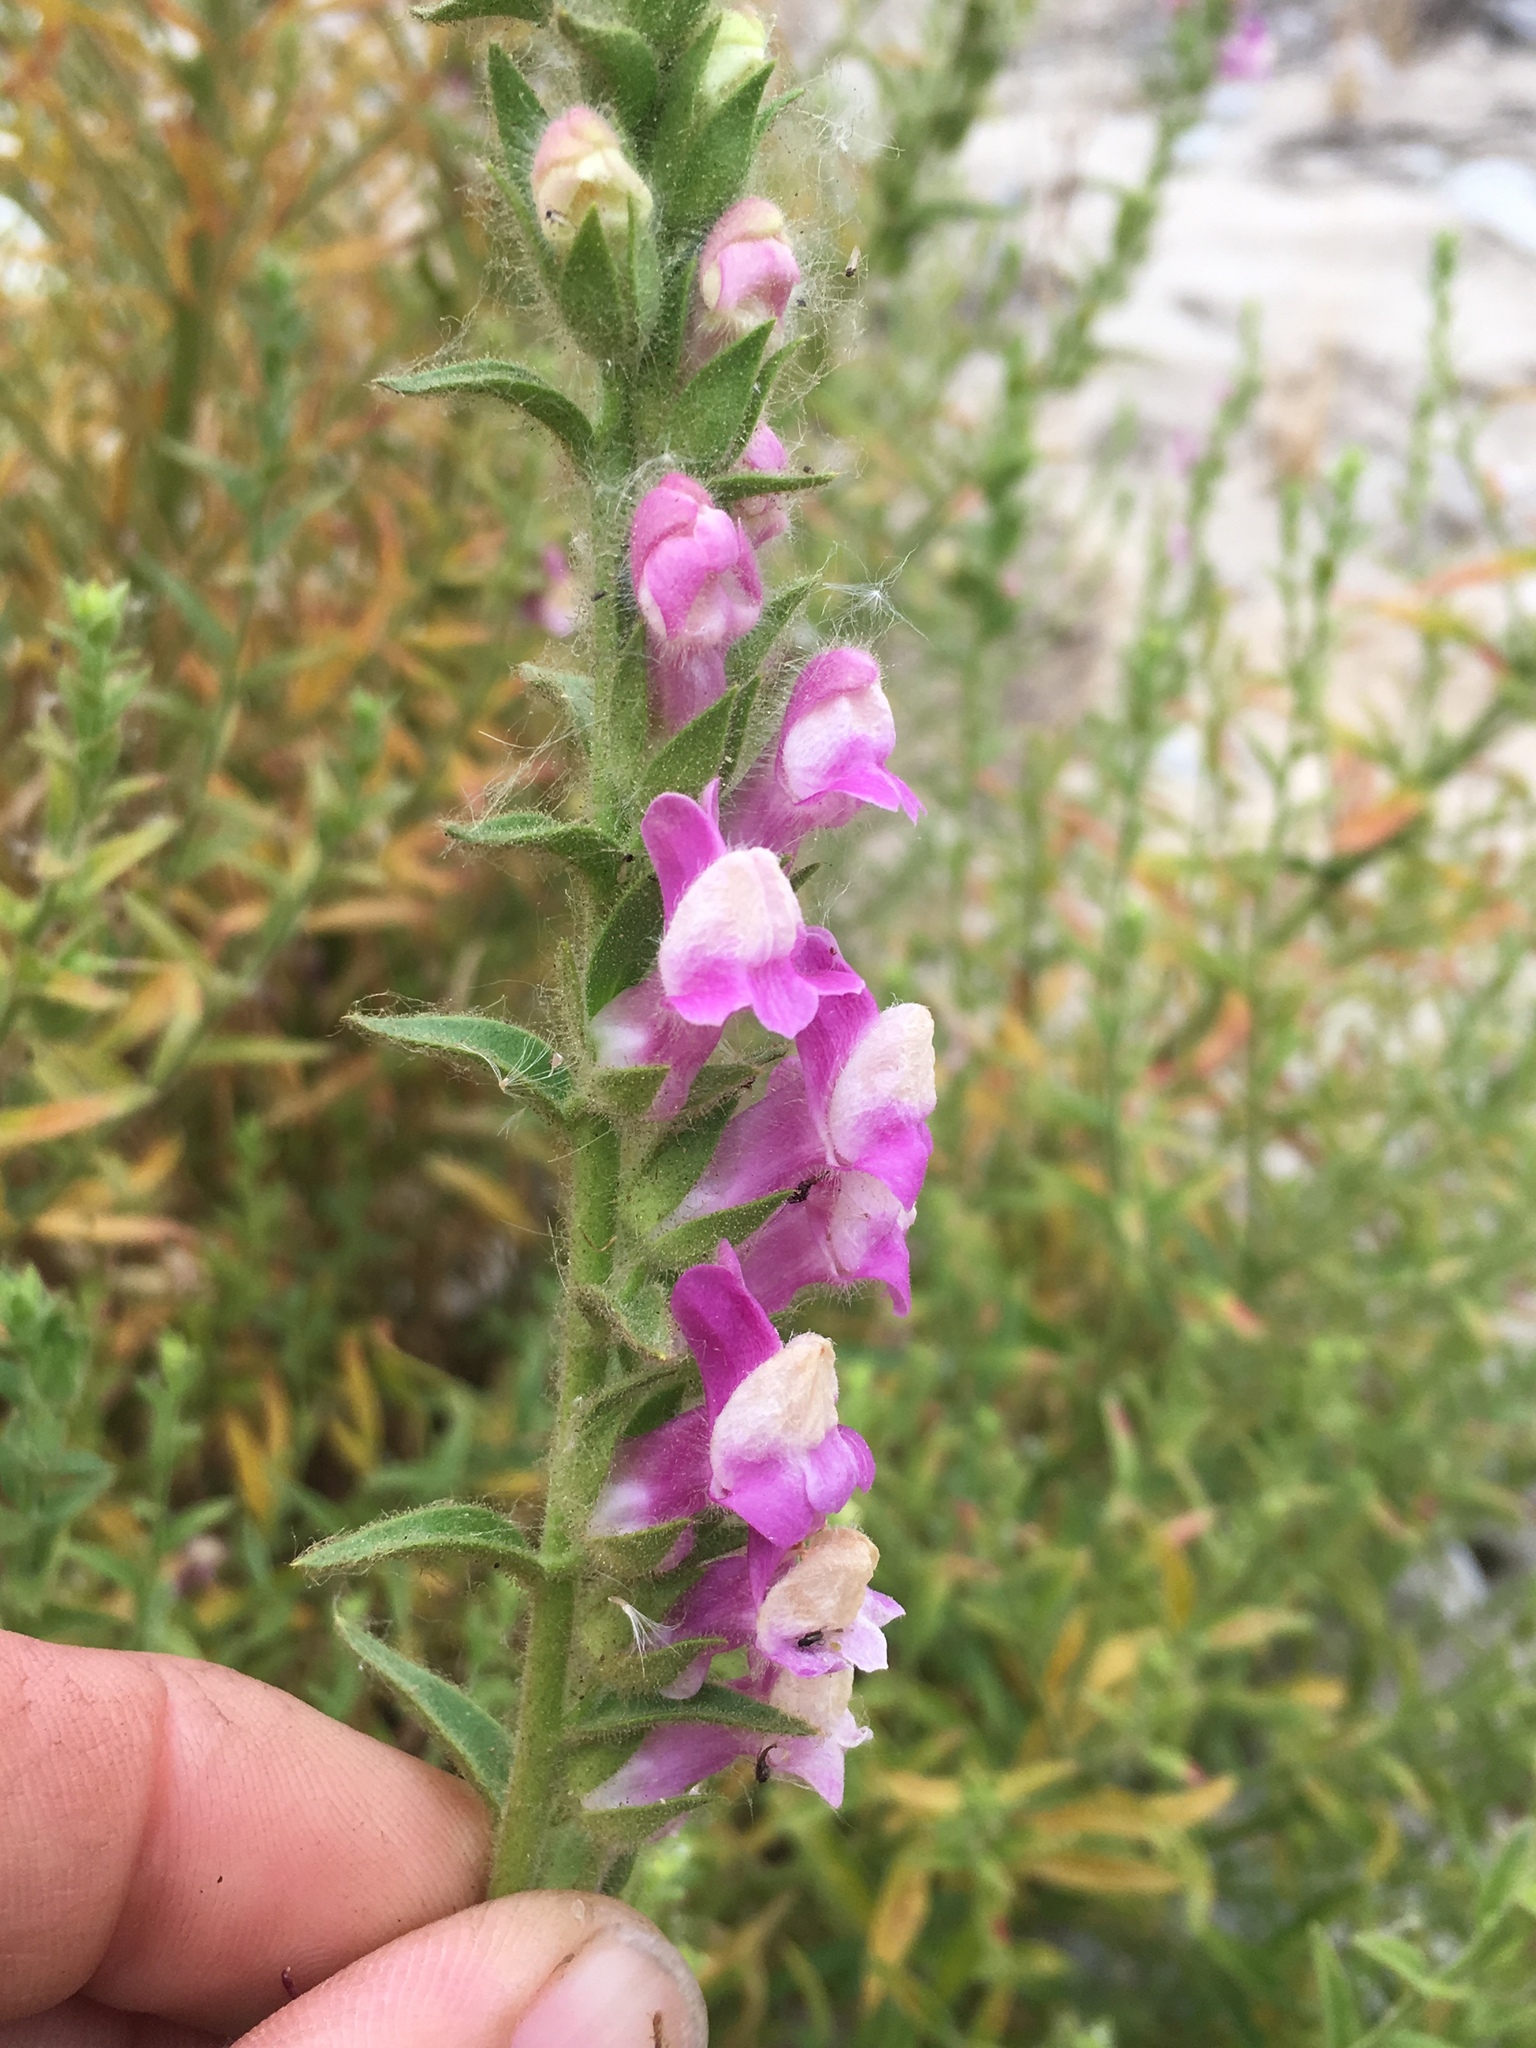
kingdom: Plantae
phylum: Tracheophyta
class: Magnoliopsida
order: Lamiales
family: Plantaginaceae
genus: Sairocarpus
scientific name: Sairocarpus multiflorus
